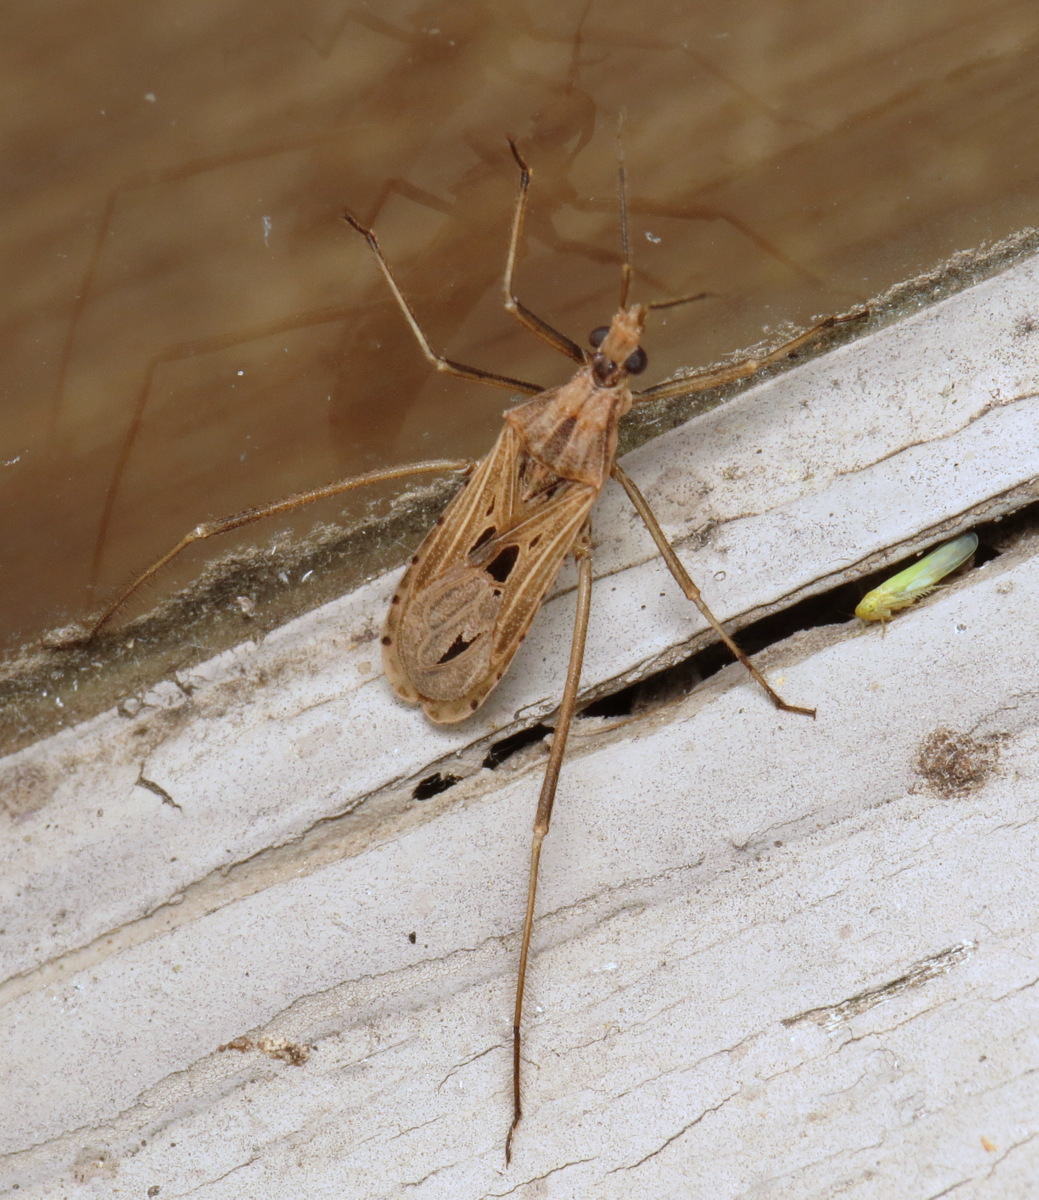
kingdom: Animalia
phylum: Arthropoda
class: Insecta
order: Hemiptera
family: Reduviidae
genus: Narvesus
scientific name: Narvesus carolinensis
